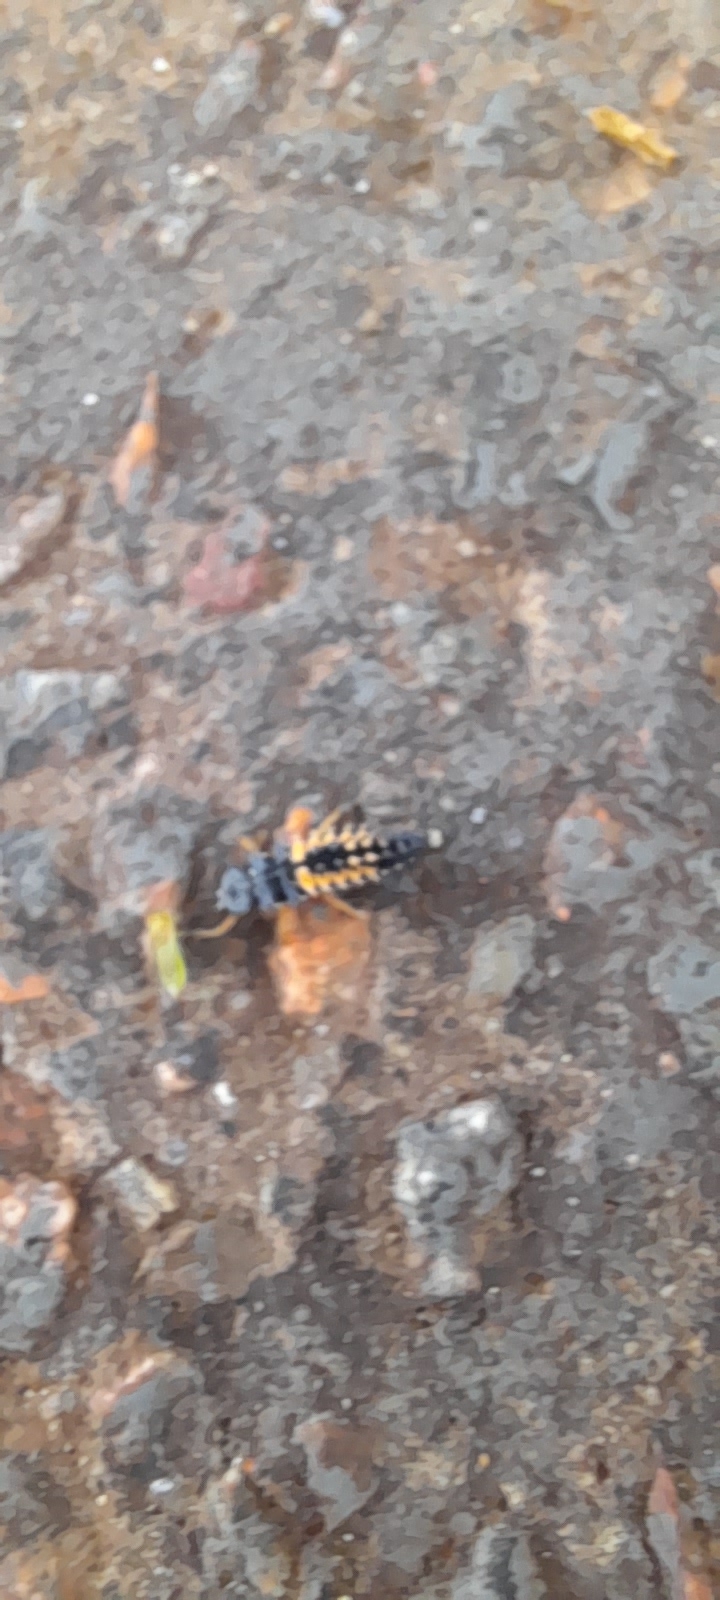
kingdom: Animalia
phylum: Arthropoda
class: Insecta
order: Coleoptera
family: Coccinellidae
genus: Harmonia
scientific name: Harmonia axyridis
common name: Harlequin ladybird
